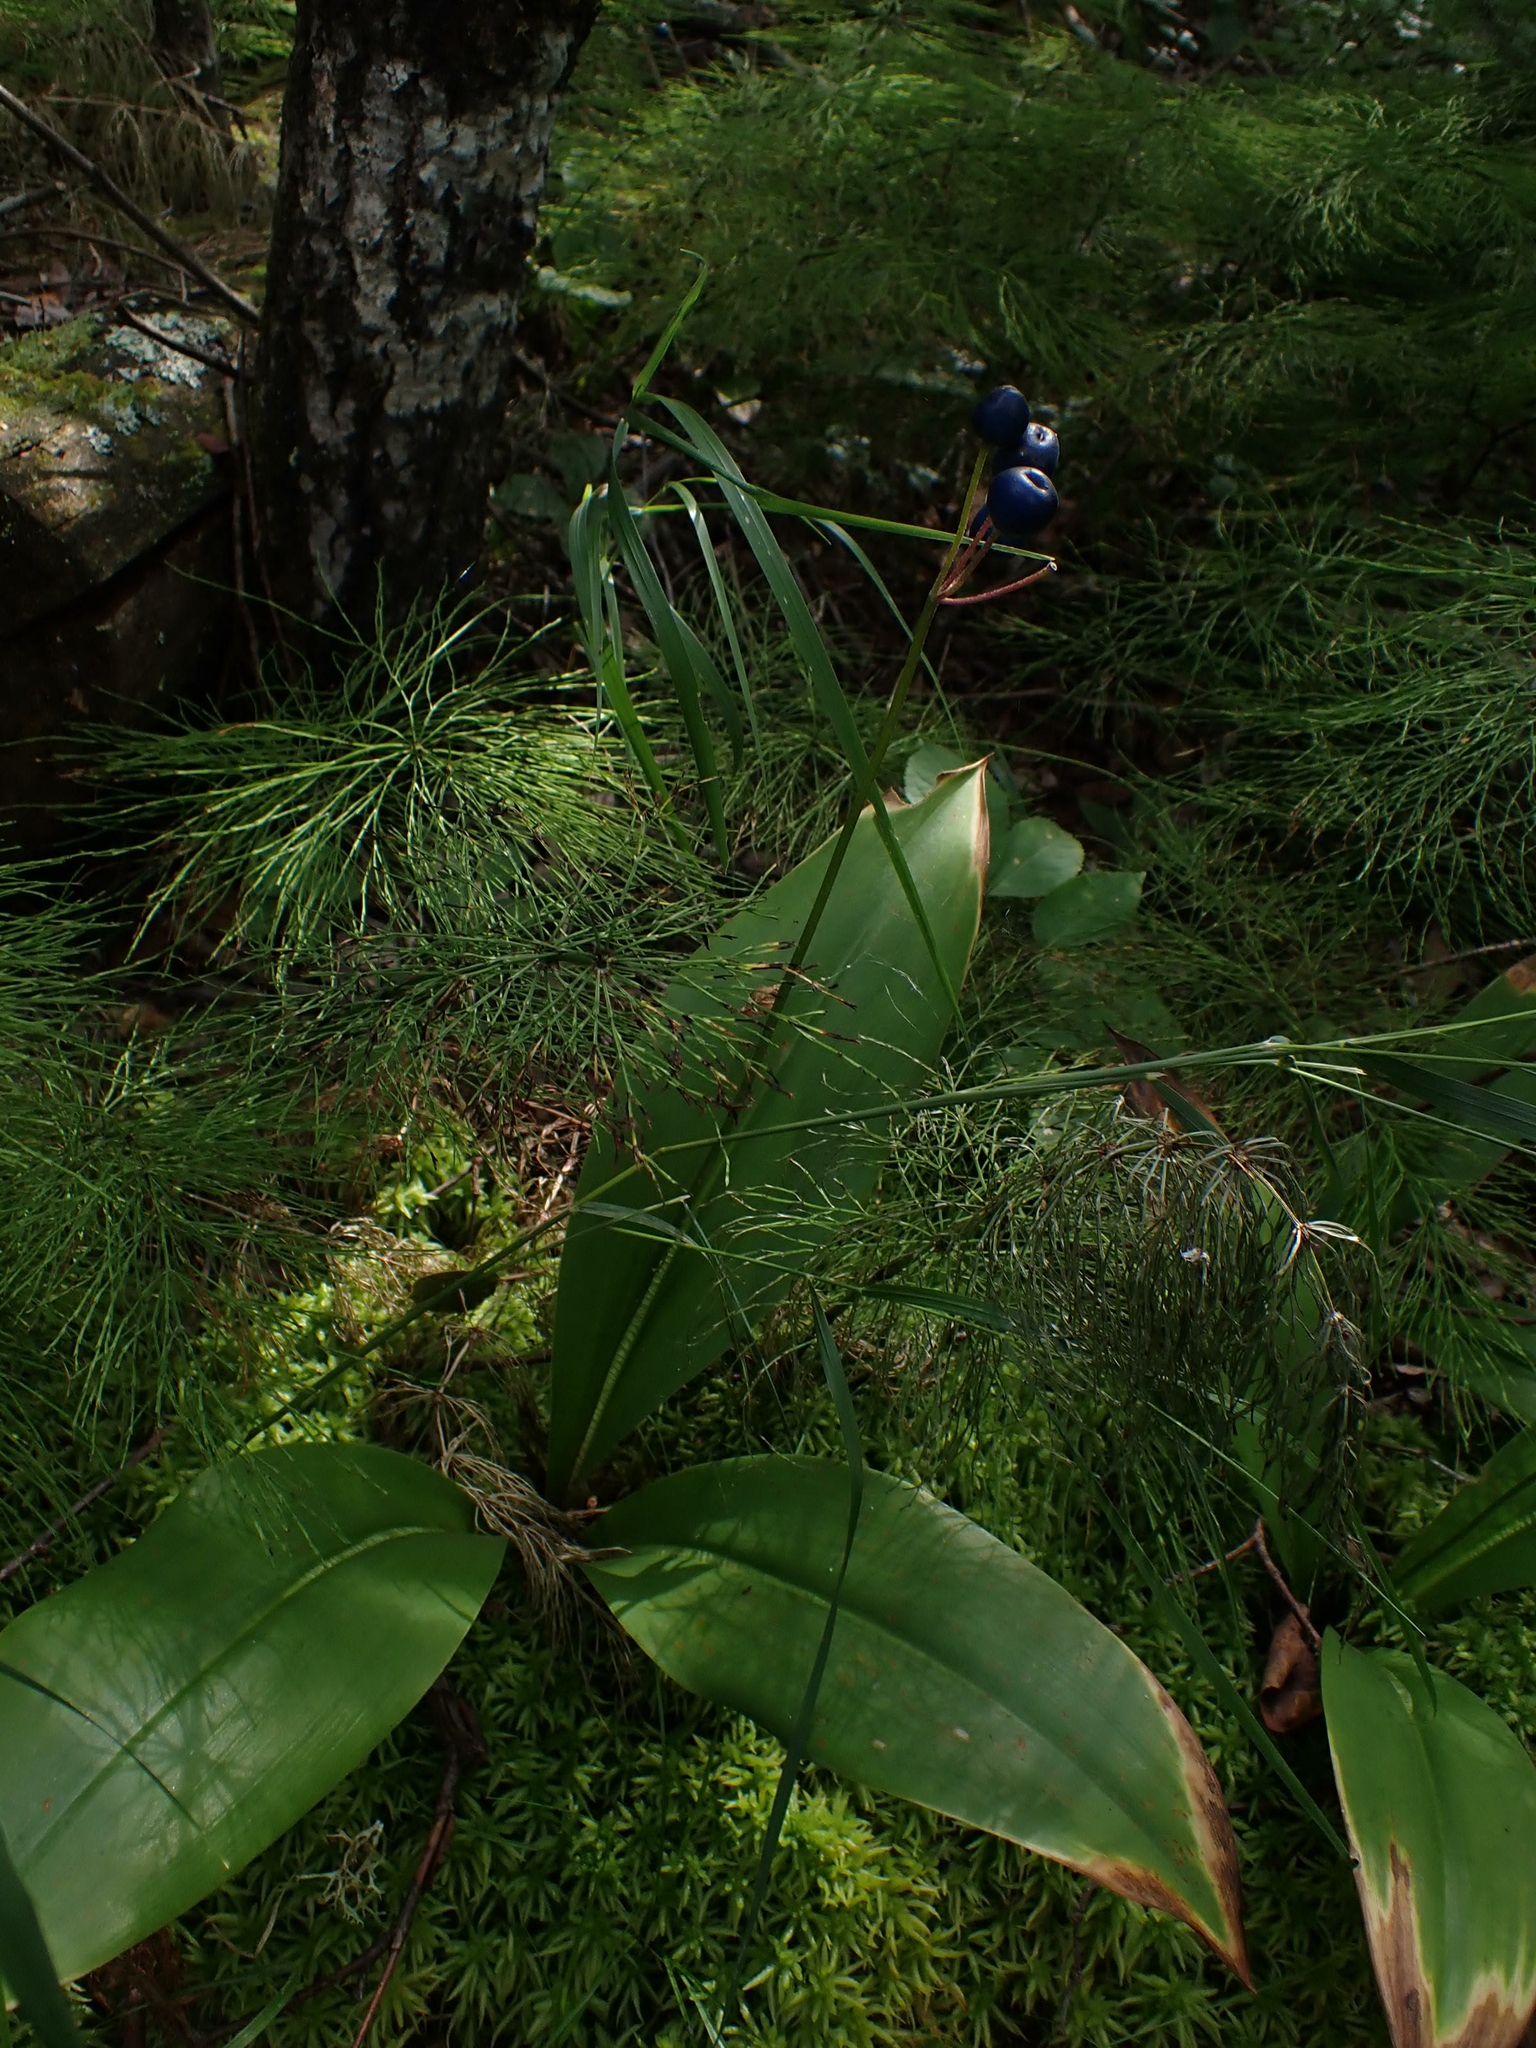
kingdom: Plantae
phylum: Tracheophyta
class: Liliopsida
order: Liliales
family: Liliaceae
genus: Clintonia
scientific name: Clintonia borealis
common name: Yellow clintonia
